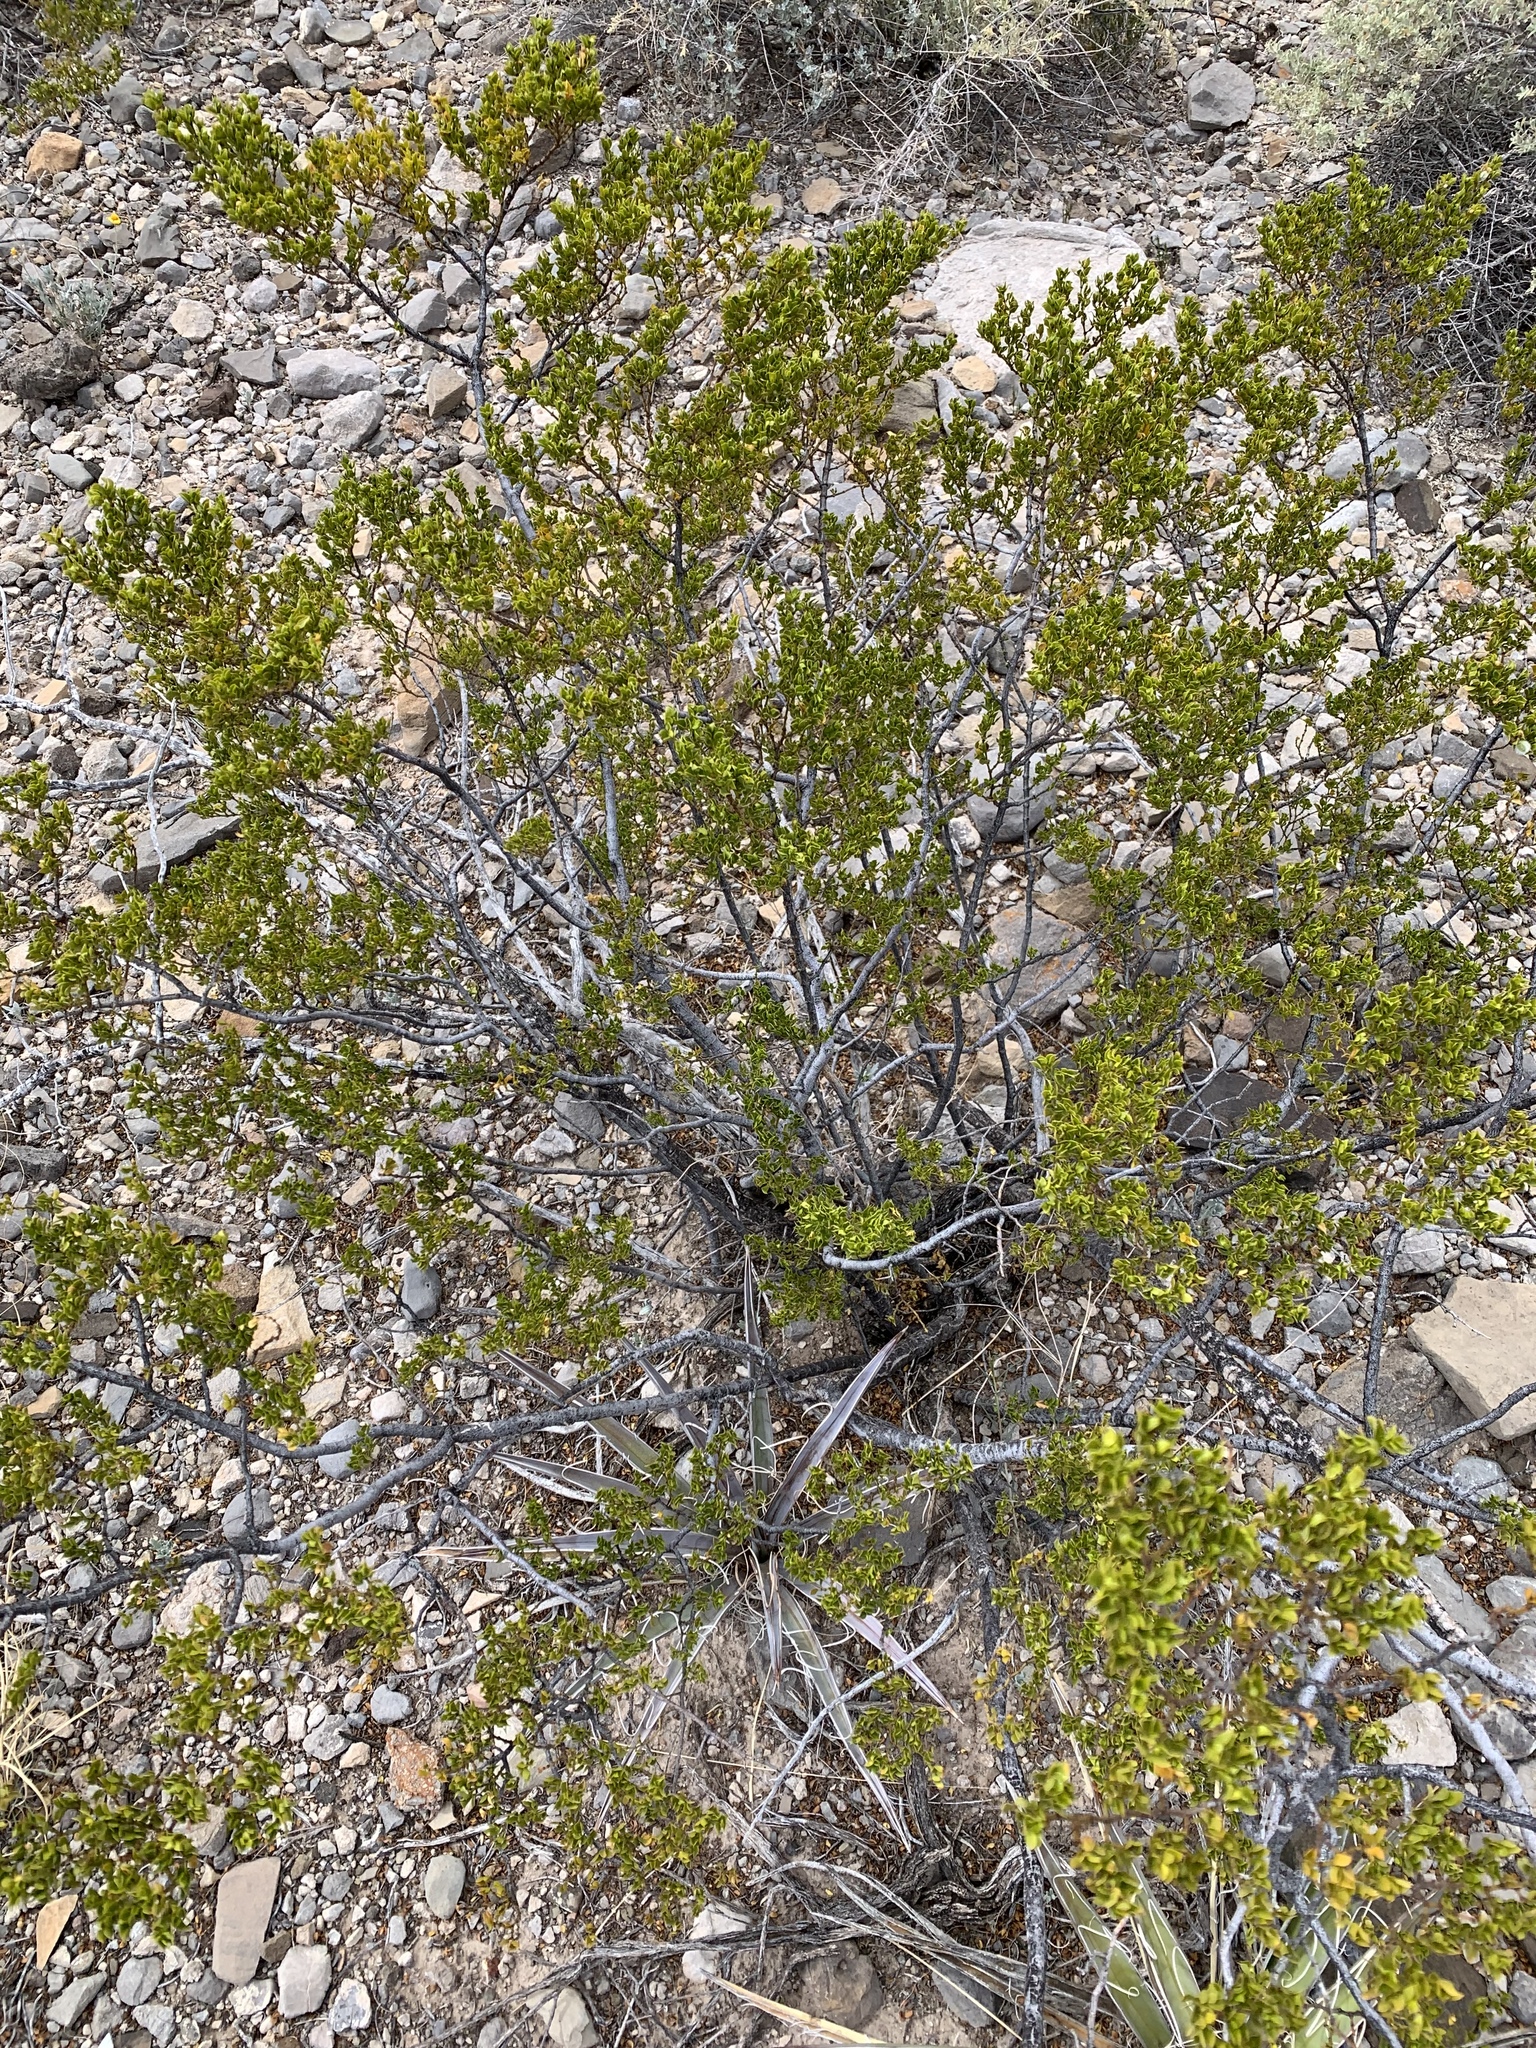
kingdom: Plantae
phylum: Tracheophyta
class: Magnoliopsida
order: Zygophyllales
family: Zygophyllaceae
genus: Larrea
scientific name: Larrea tridentata
